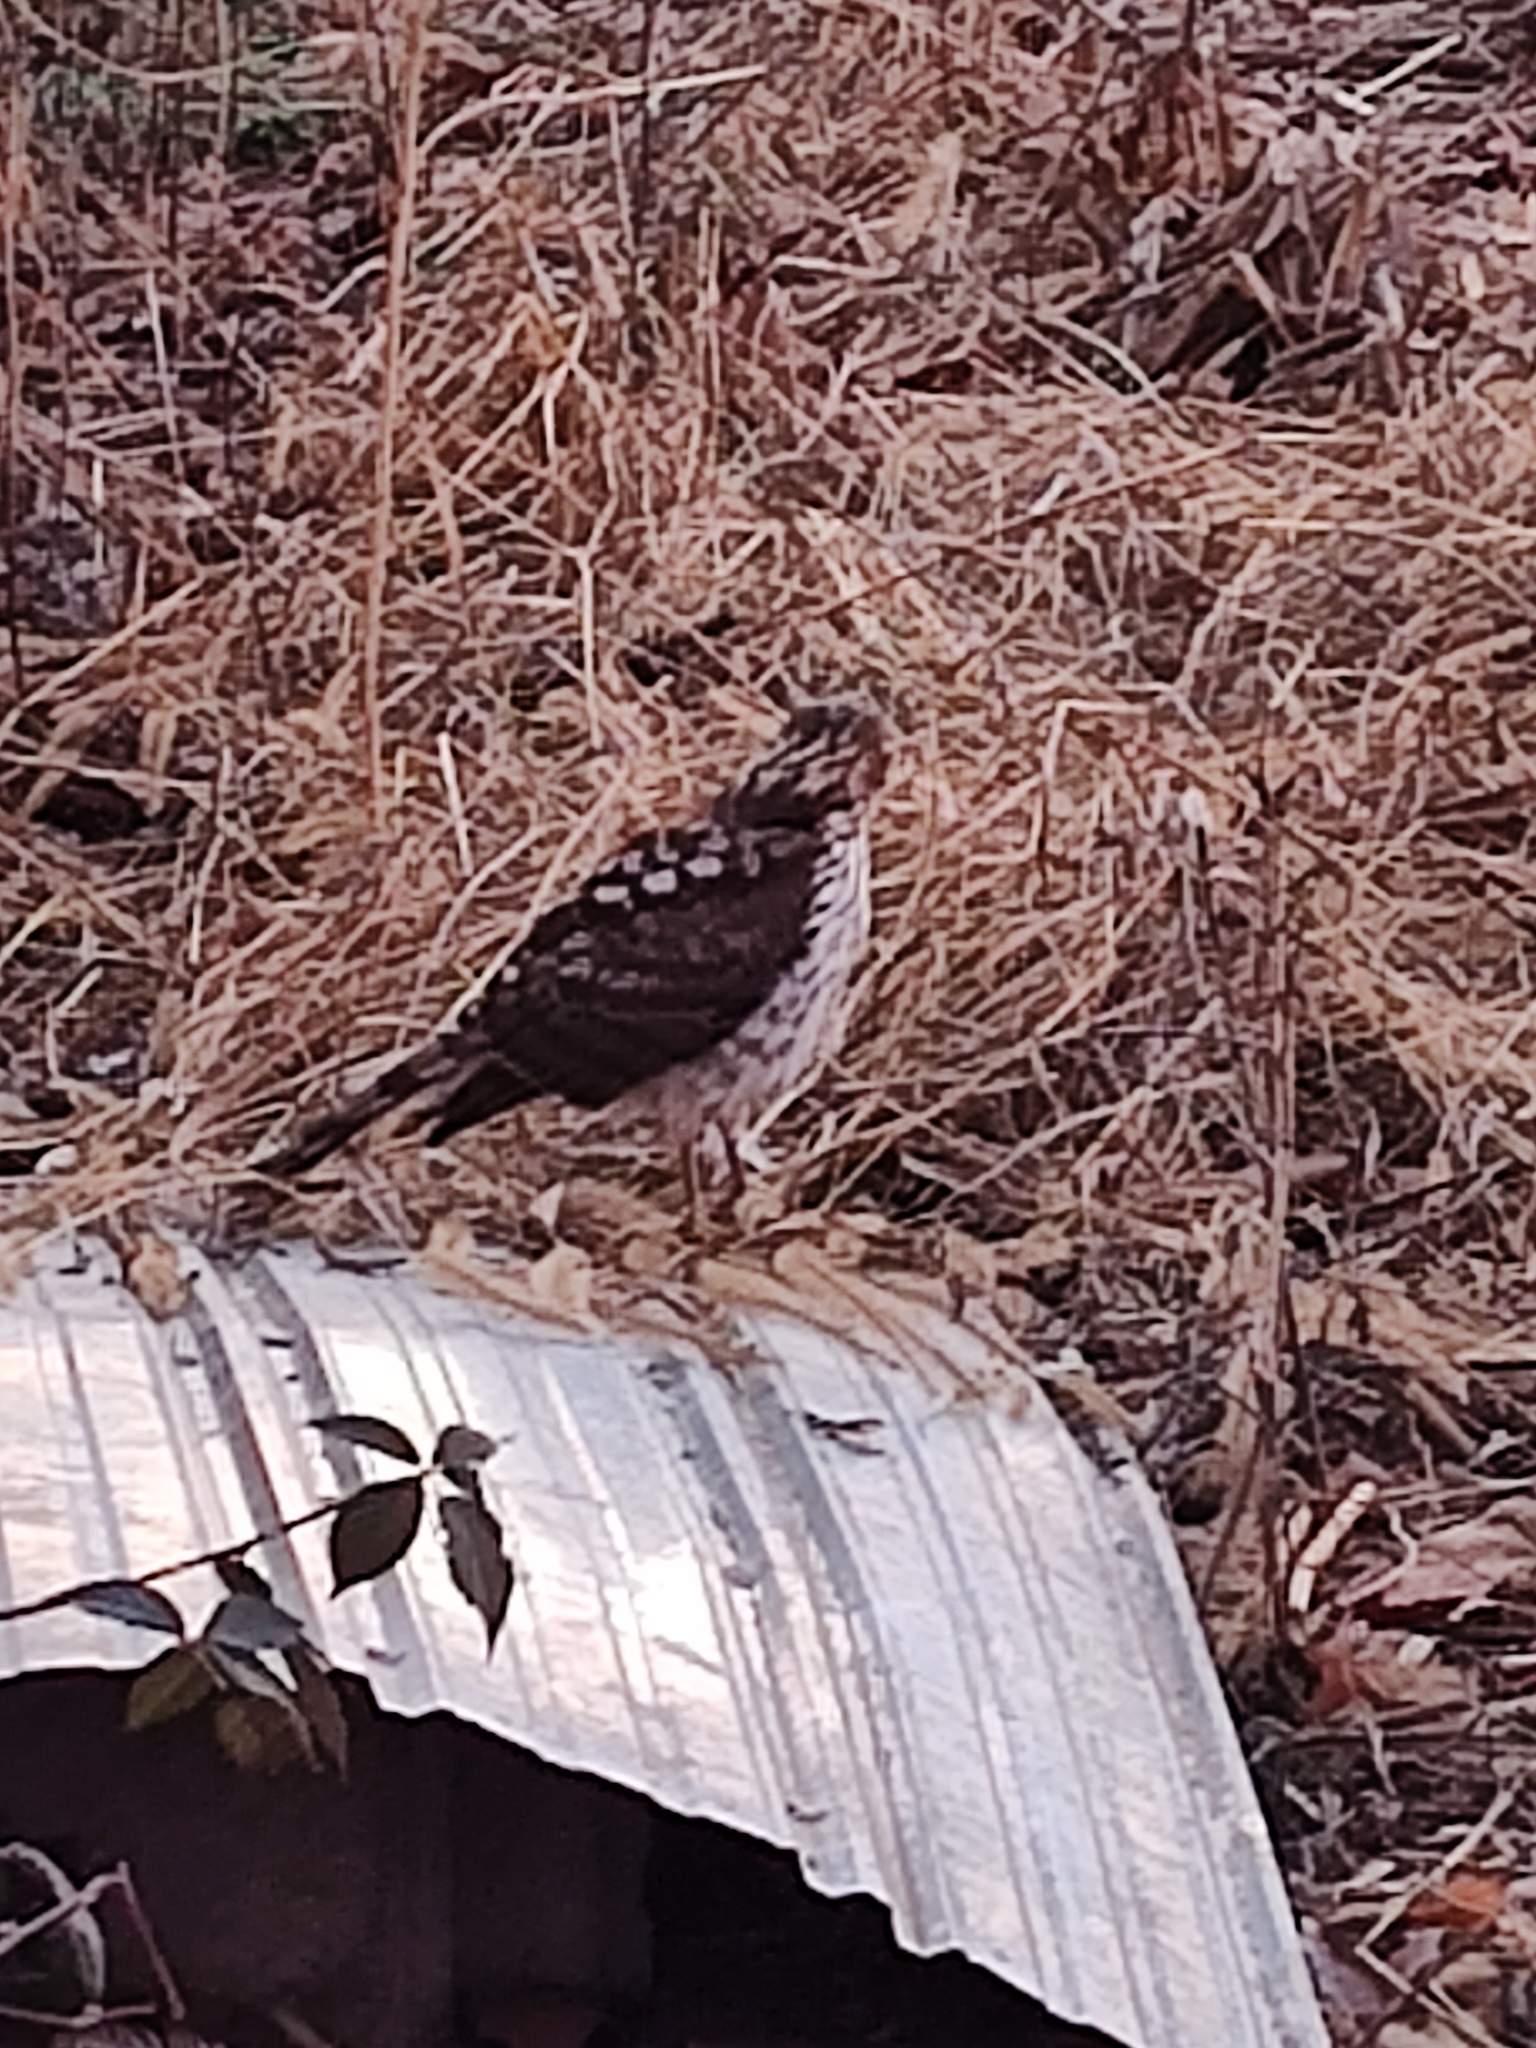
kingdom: Animalia
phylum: Chordata
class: Aves
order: Accipitriformes
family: Accipitridae
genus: Accipiter
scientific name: Accipiter cooperii
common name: Cooper's hawk
